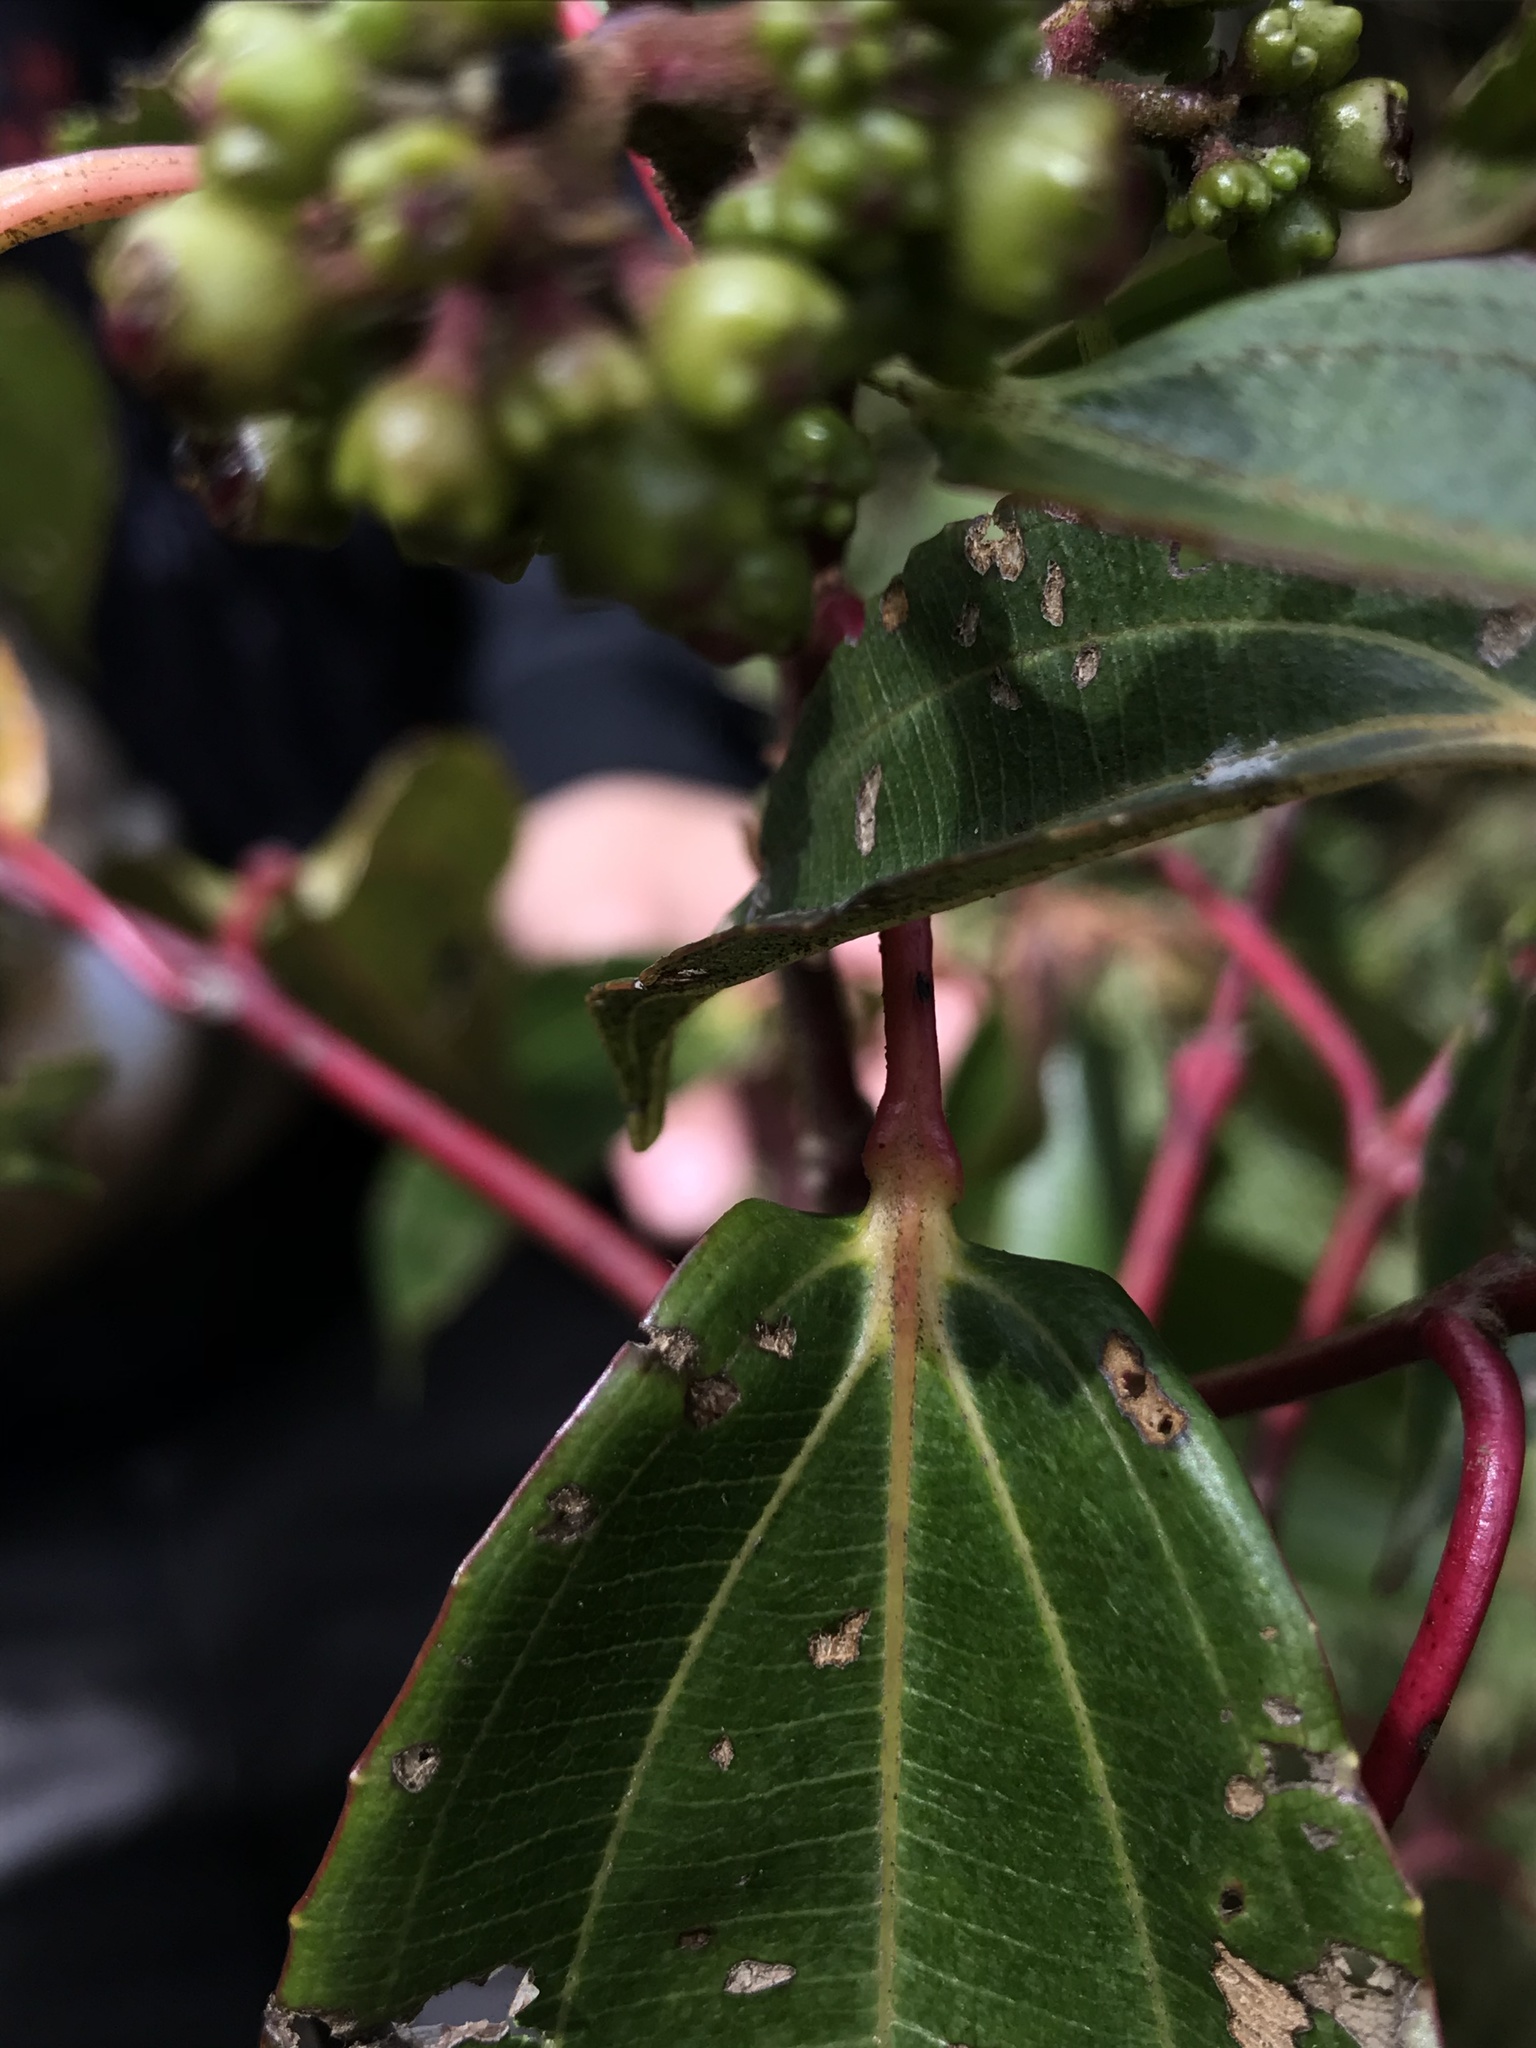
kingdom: Plantae
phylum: Tracheophyta
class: Magnoliopsida
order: Myrtales
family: Melastomataceae
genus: Axinaea
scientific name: Axinaea scutigera
